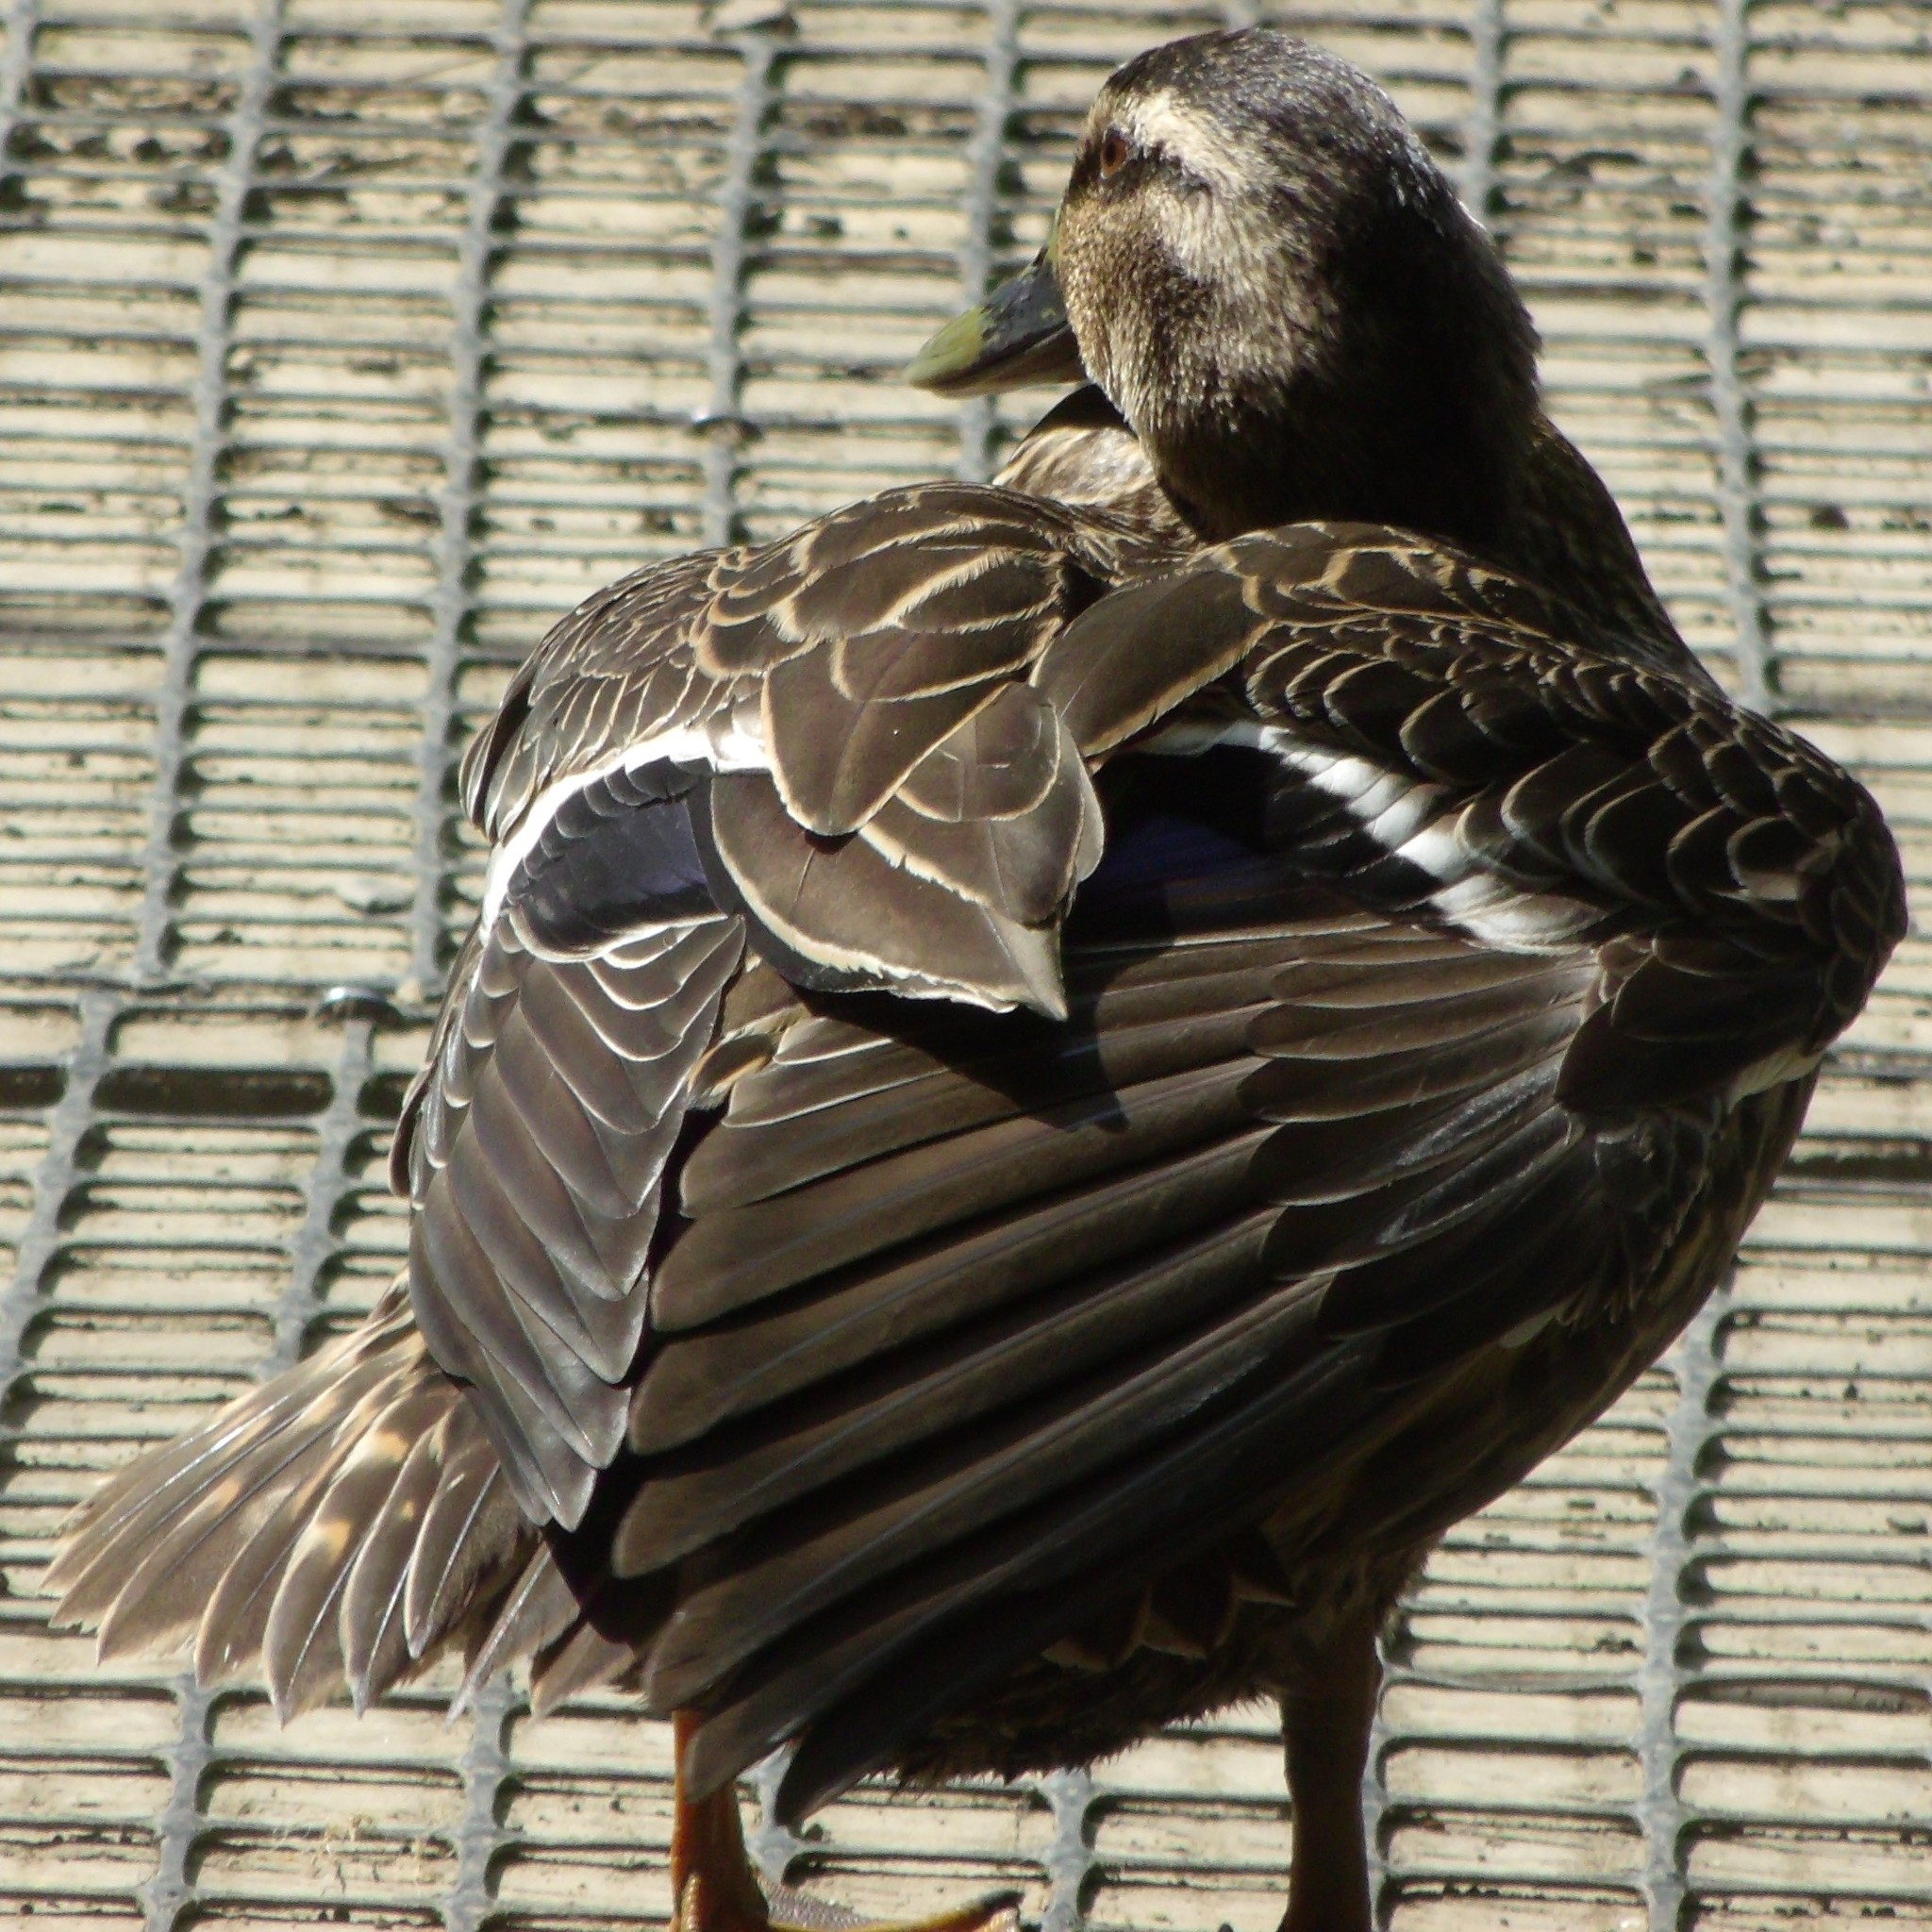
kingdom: Animalia
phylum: Chordata
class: Aves
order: Anseriformes
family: Anatidae
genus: Anas
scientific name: Anas
